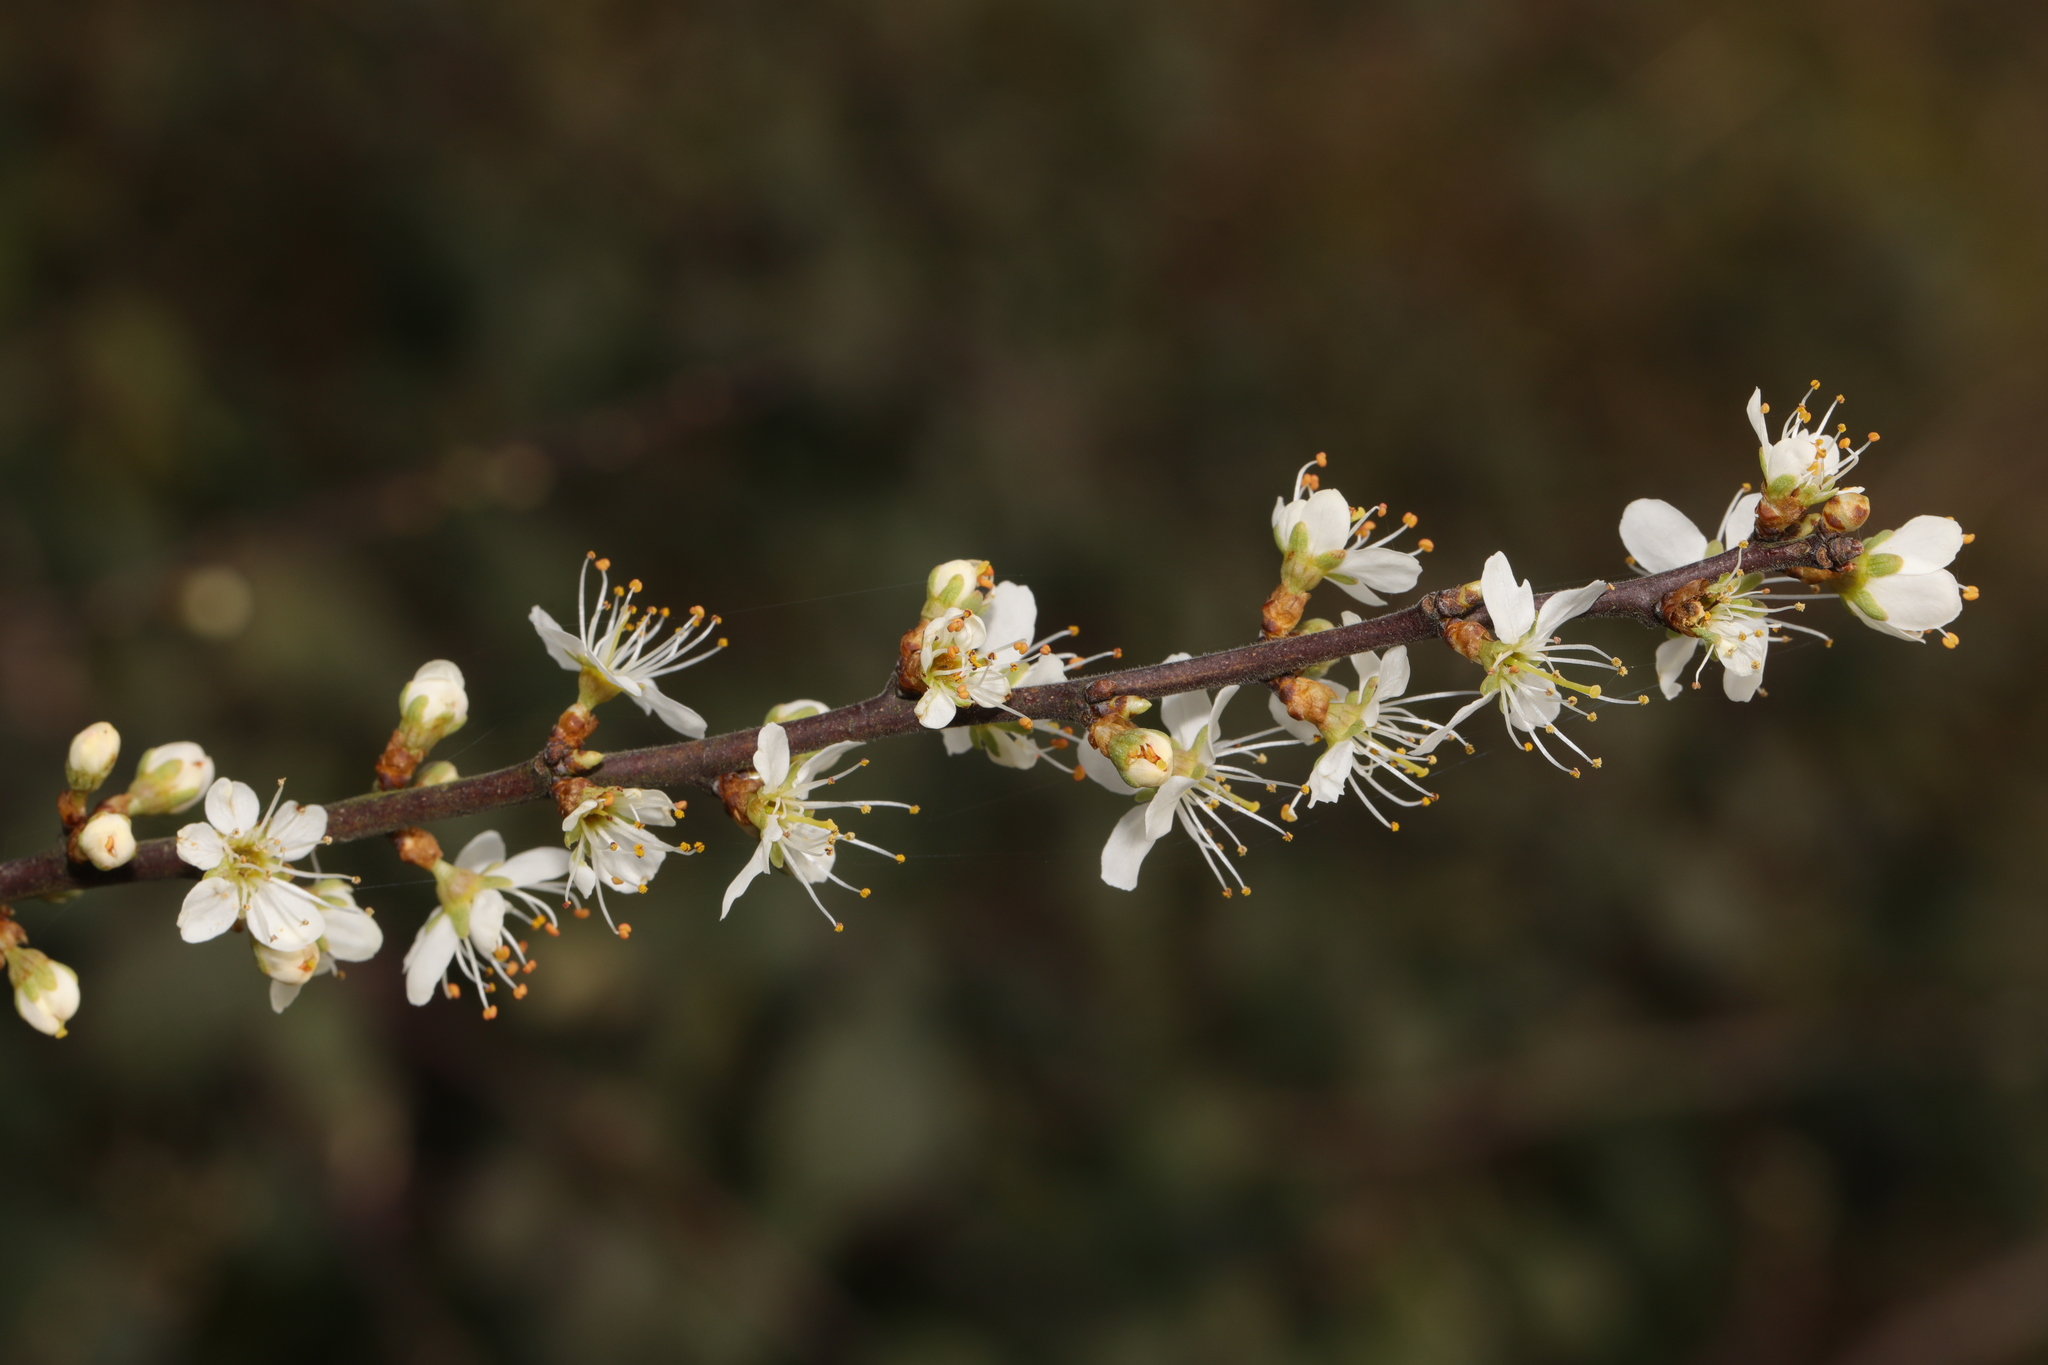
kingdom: Plantae
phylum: Tracheophyta
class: Magnoliopsida
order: Rosales
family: Rosaceae
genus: Prunus
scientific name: Prunus spinosa
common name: Blackthorn
